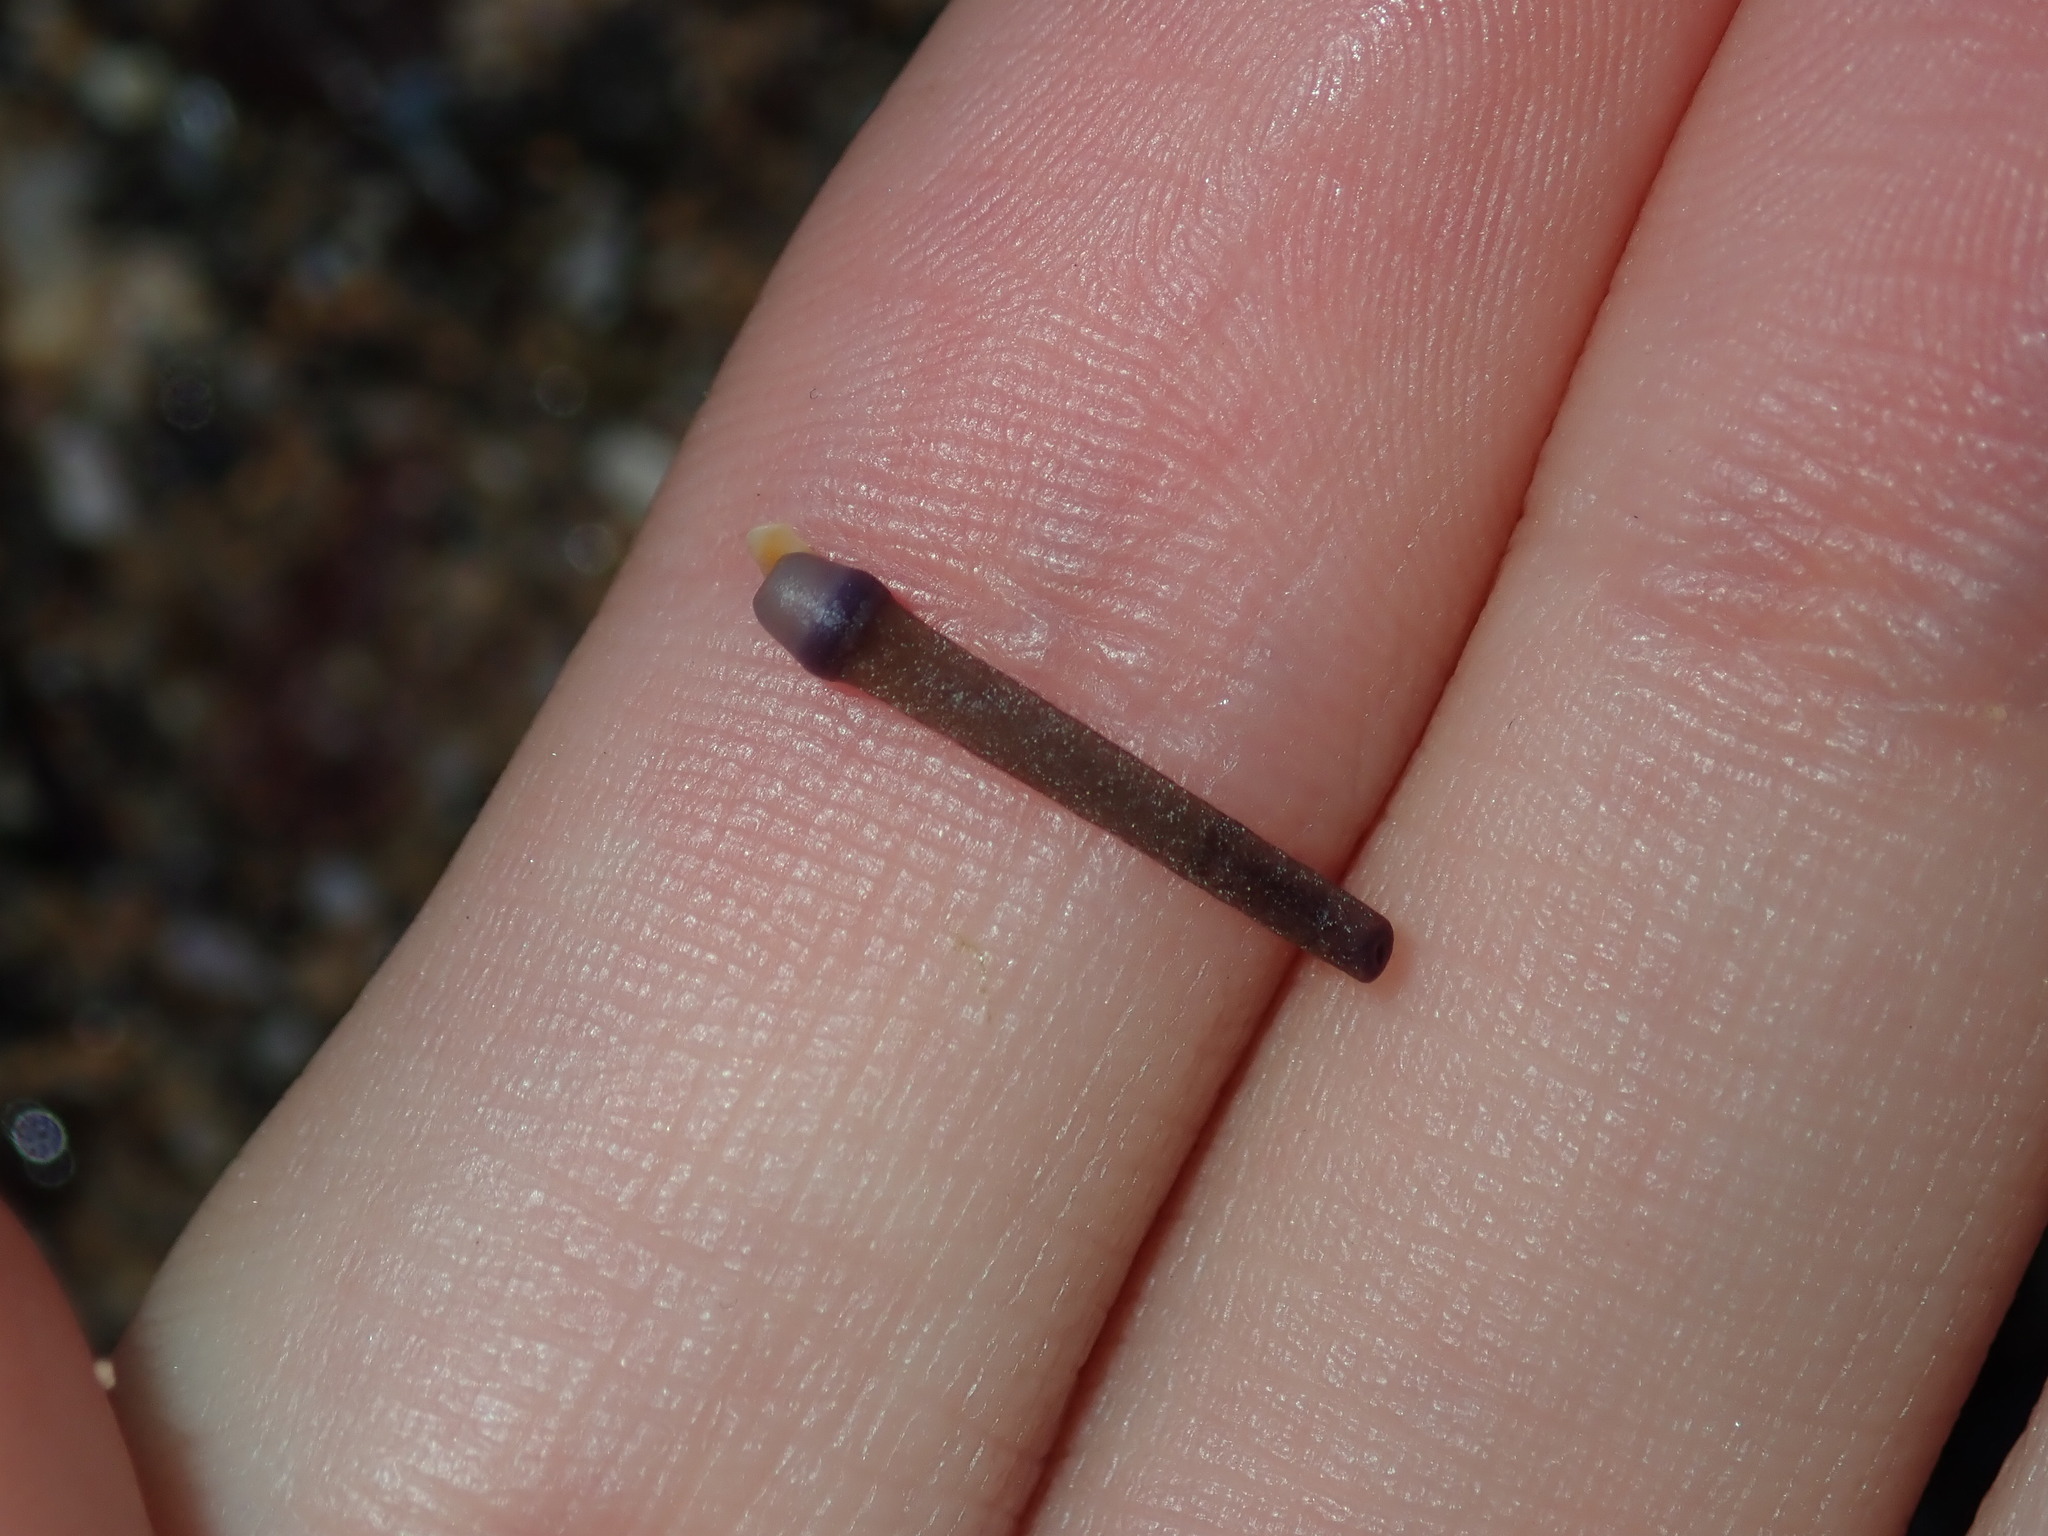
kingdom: Animalia
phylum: Echinodermata
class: Echinoidea
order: Camarodonta
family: Echinometridae
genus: Heliocidaris
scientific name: Heliocidaris erythrogramma
